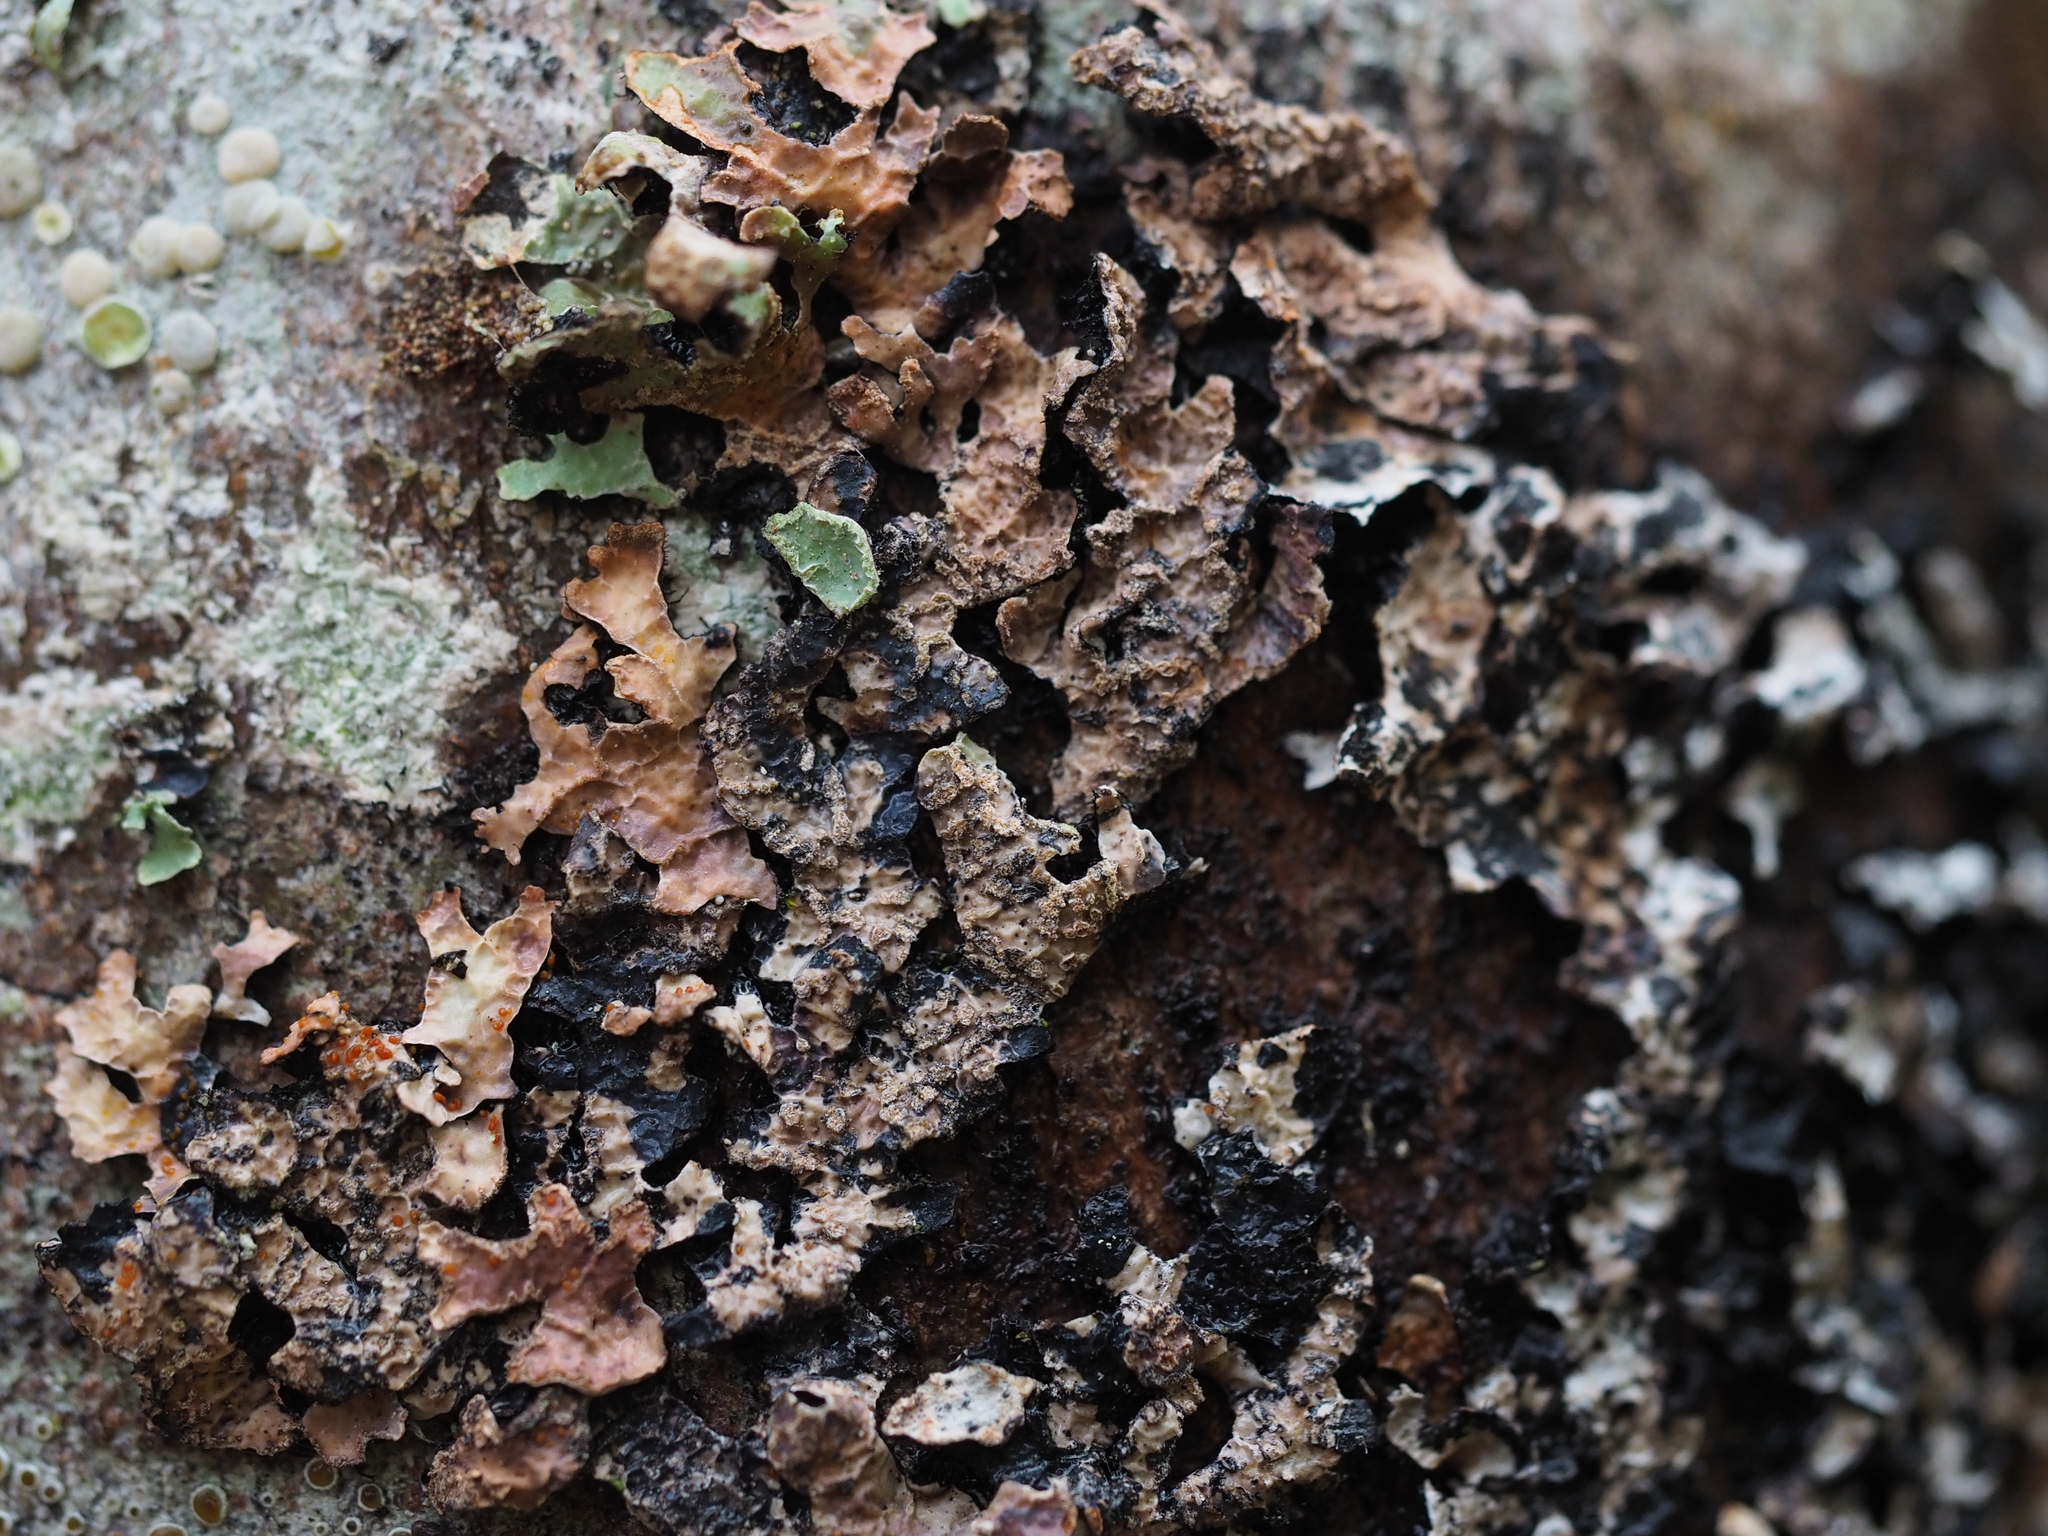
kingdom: Fungi
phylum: Ascomycota
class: Sordariomycetes
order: Hypocreales
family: Bionectriaceae
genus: Nectriopsis
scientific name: Nectriopsis rubefaciens
